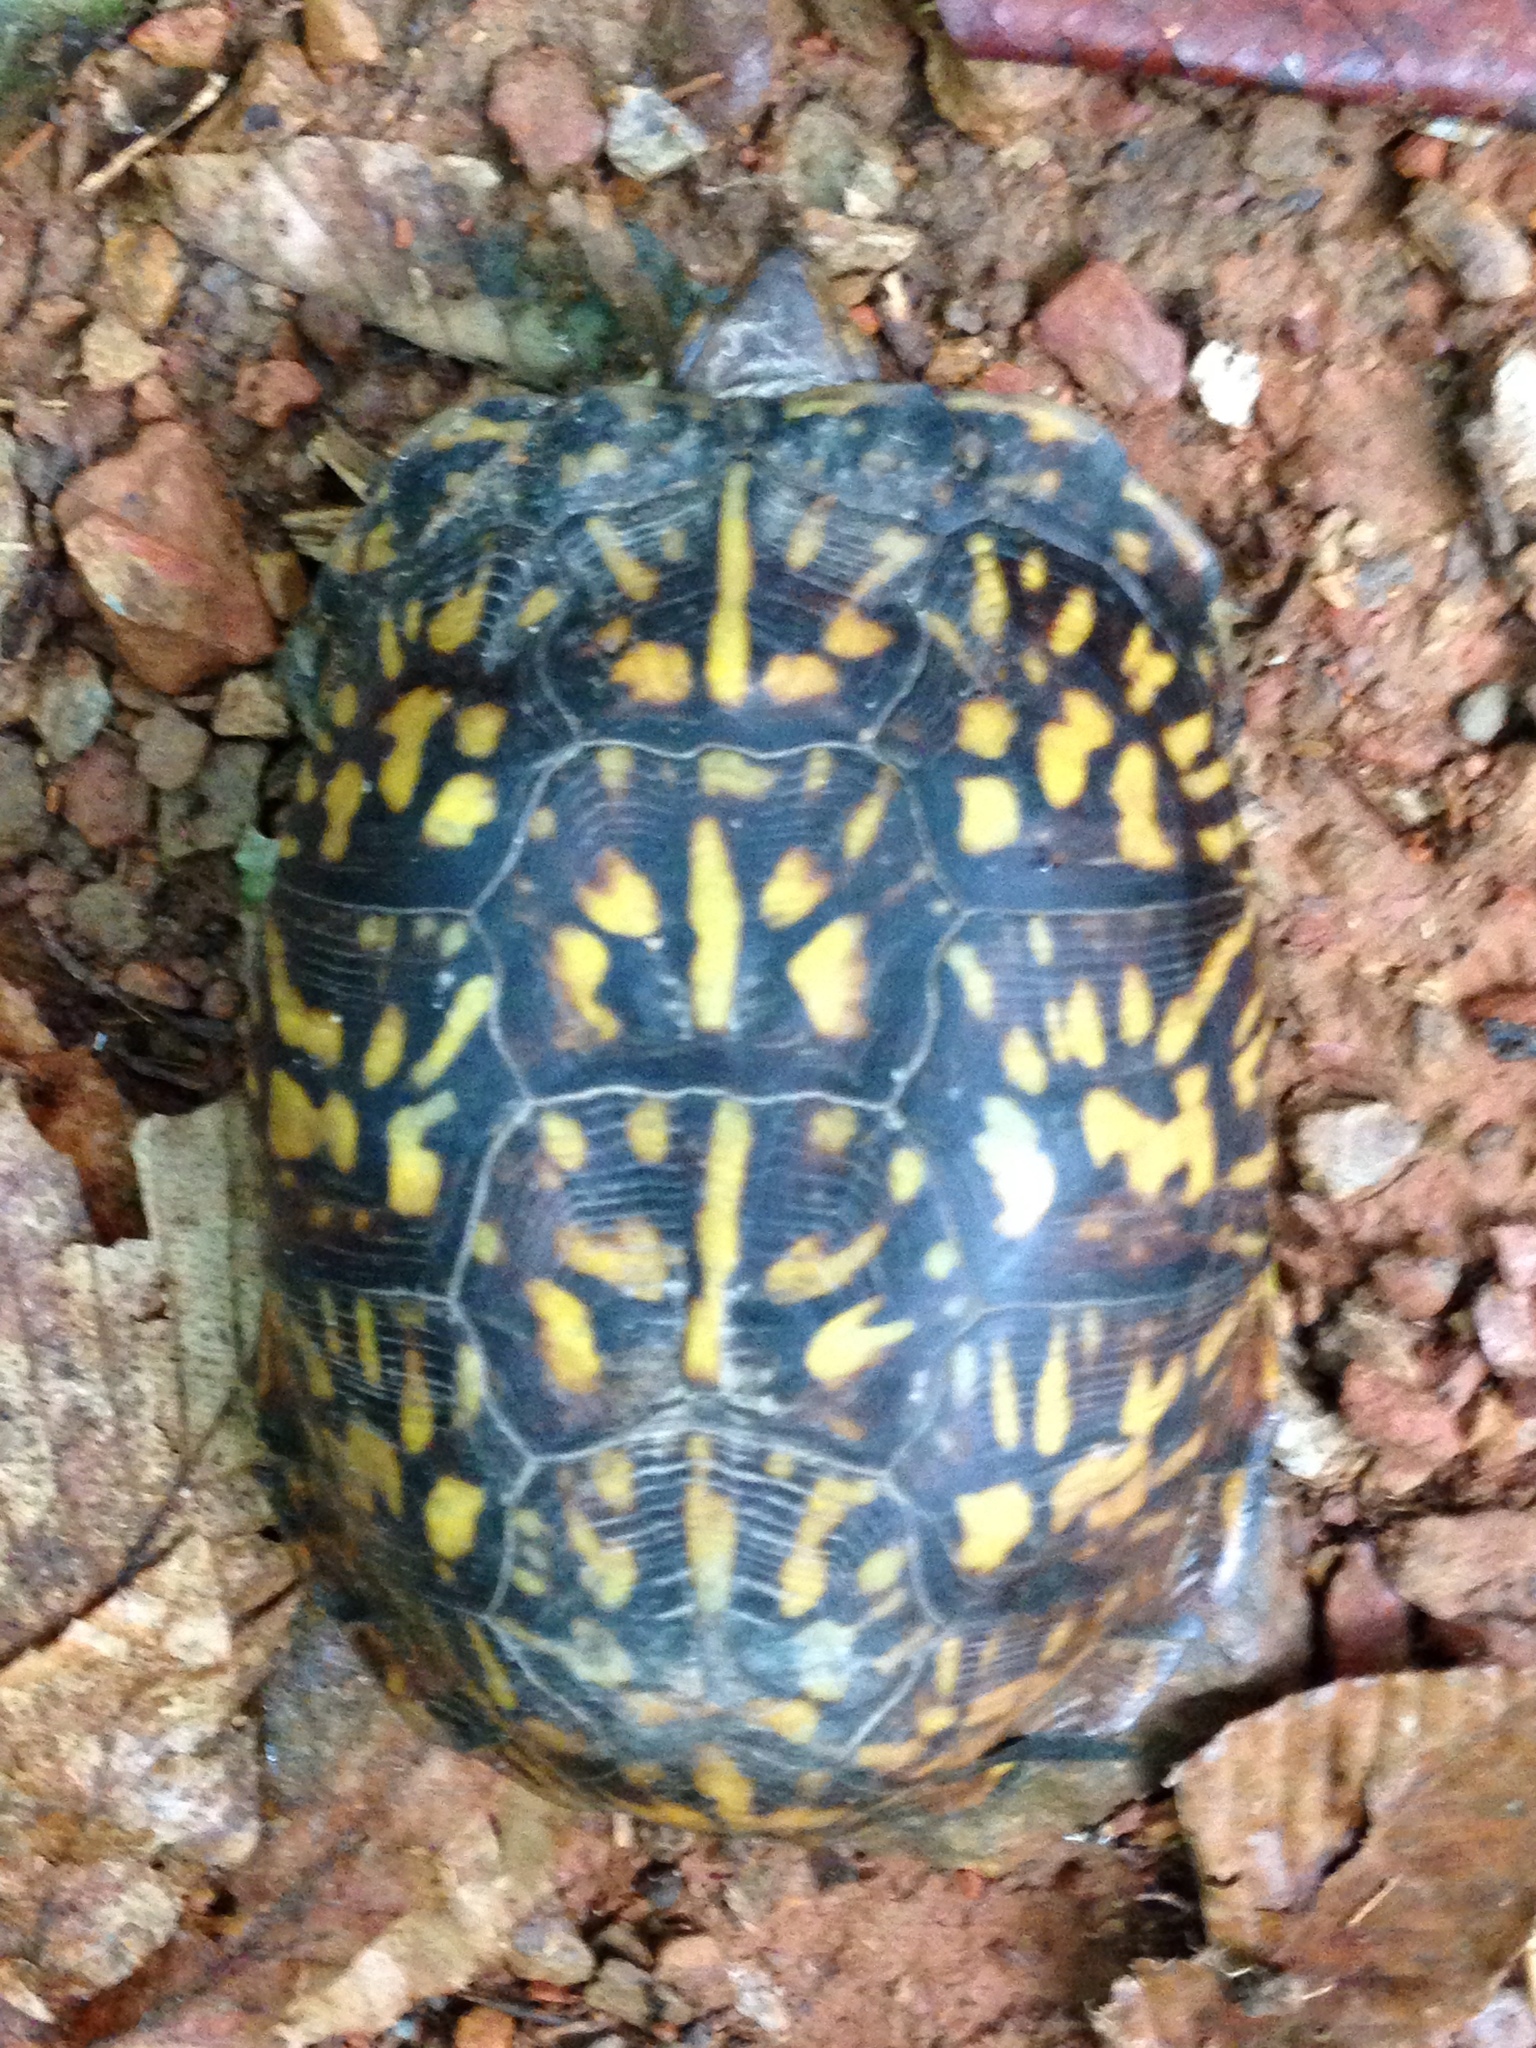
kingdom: Animalia
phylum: Chordata
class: Testudines
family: Emydidae
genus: Terrapene
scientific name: Terrapene carolina
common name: Common box turtle
